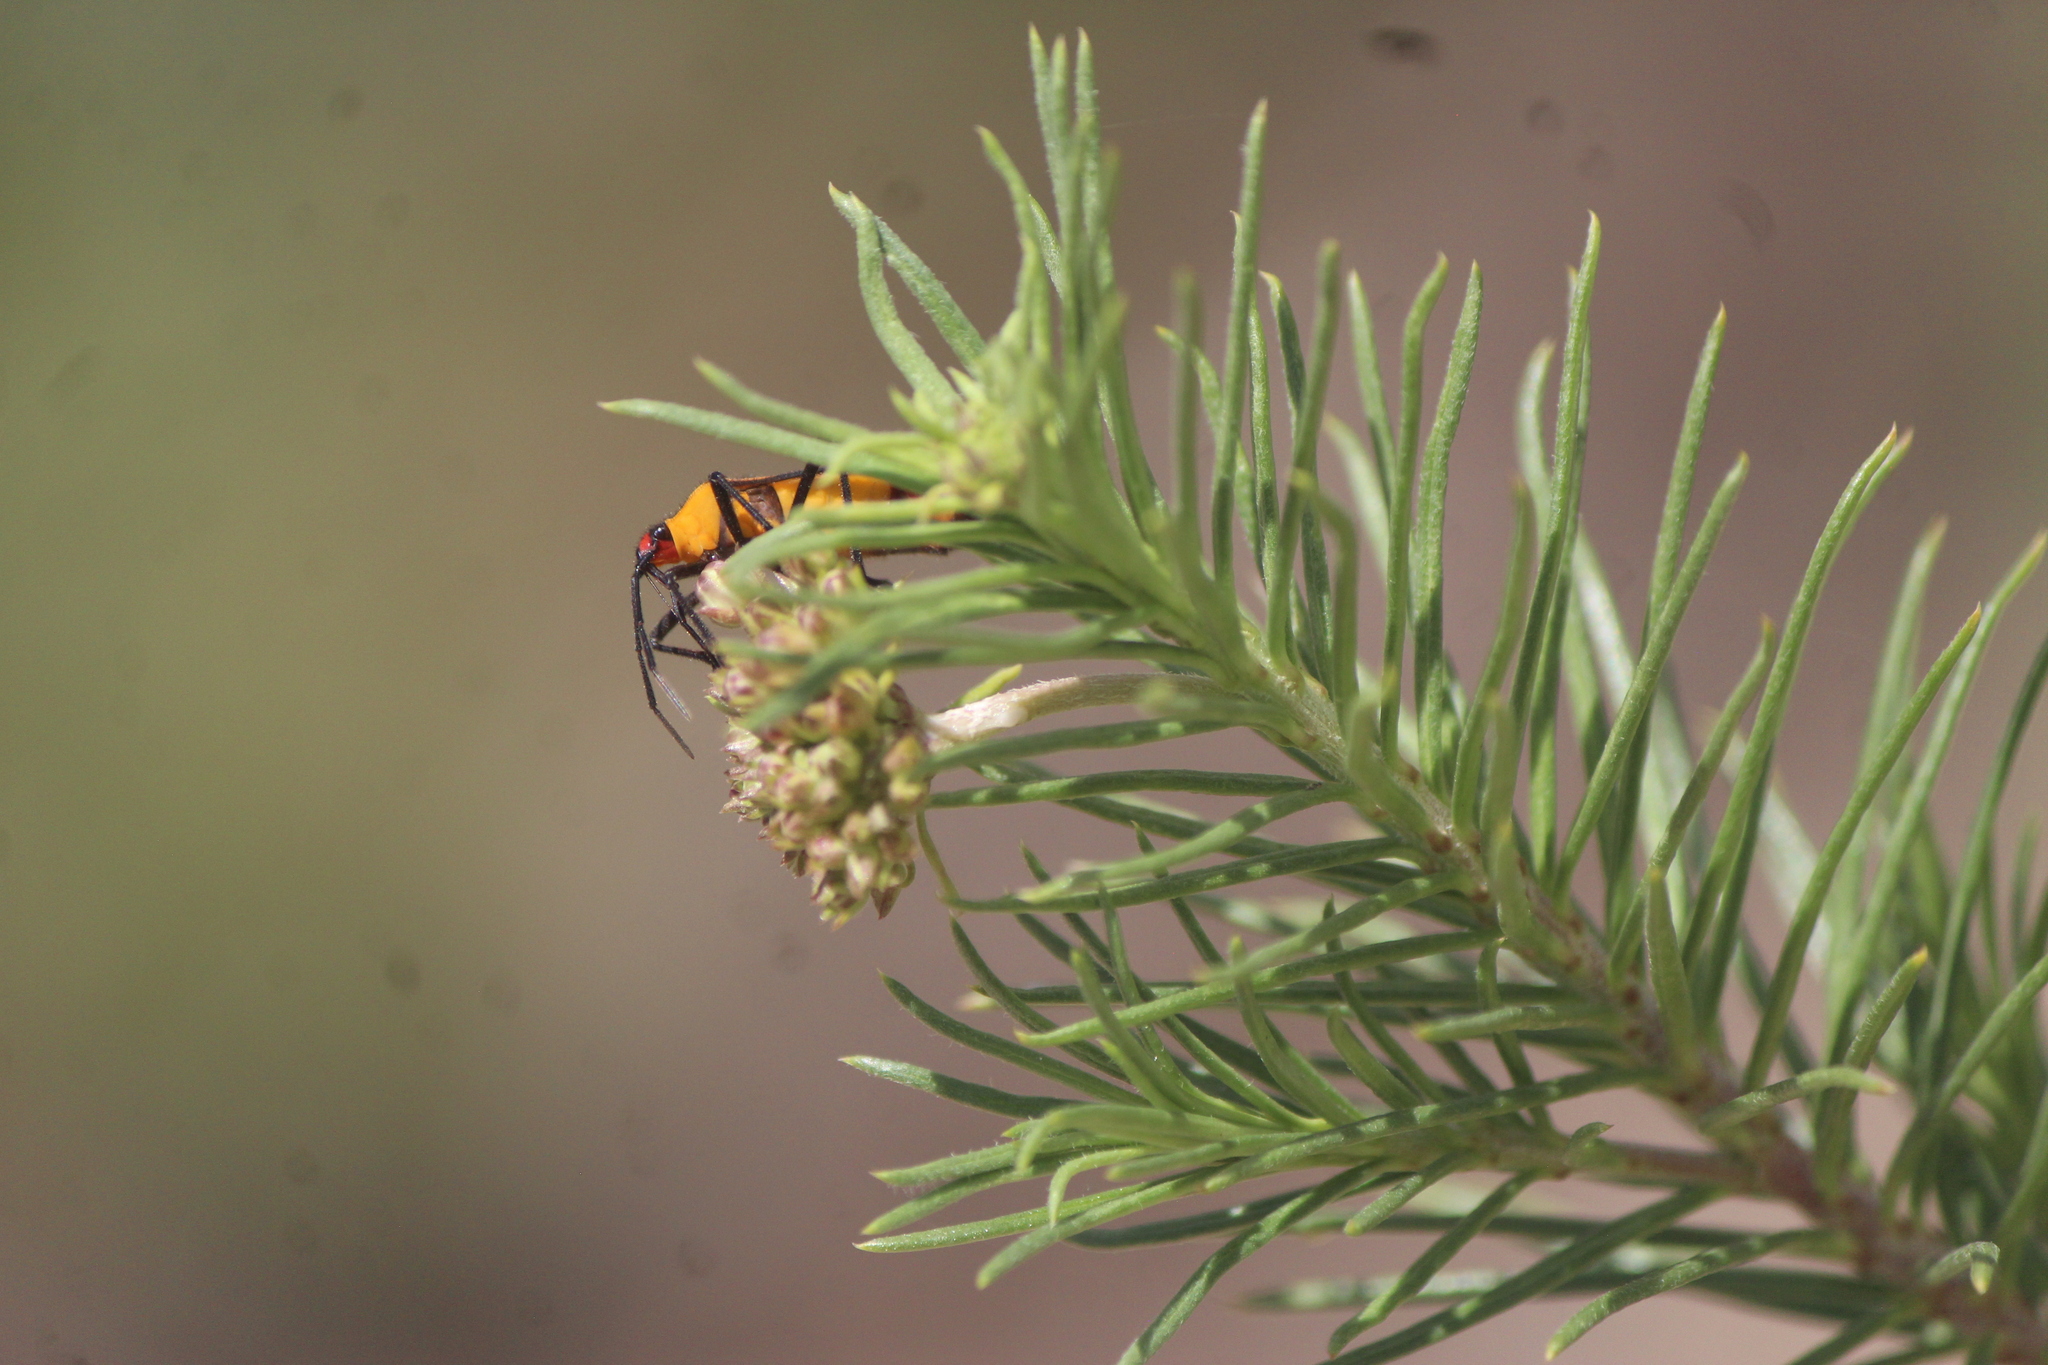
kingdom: Plantae
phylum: Tracheophyta
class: Magnoliopsida
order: Gentianales
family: Apocynaceae
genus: Asclepias
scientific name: Asclepias linaria
